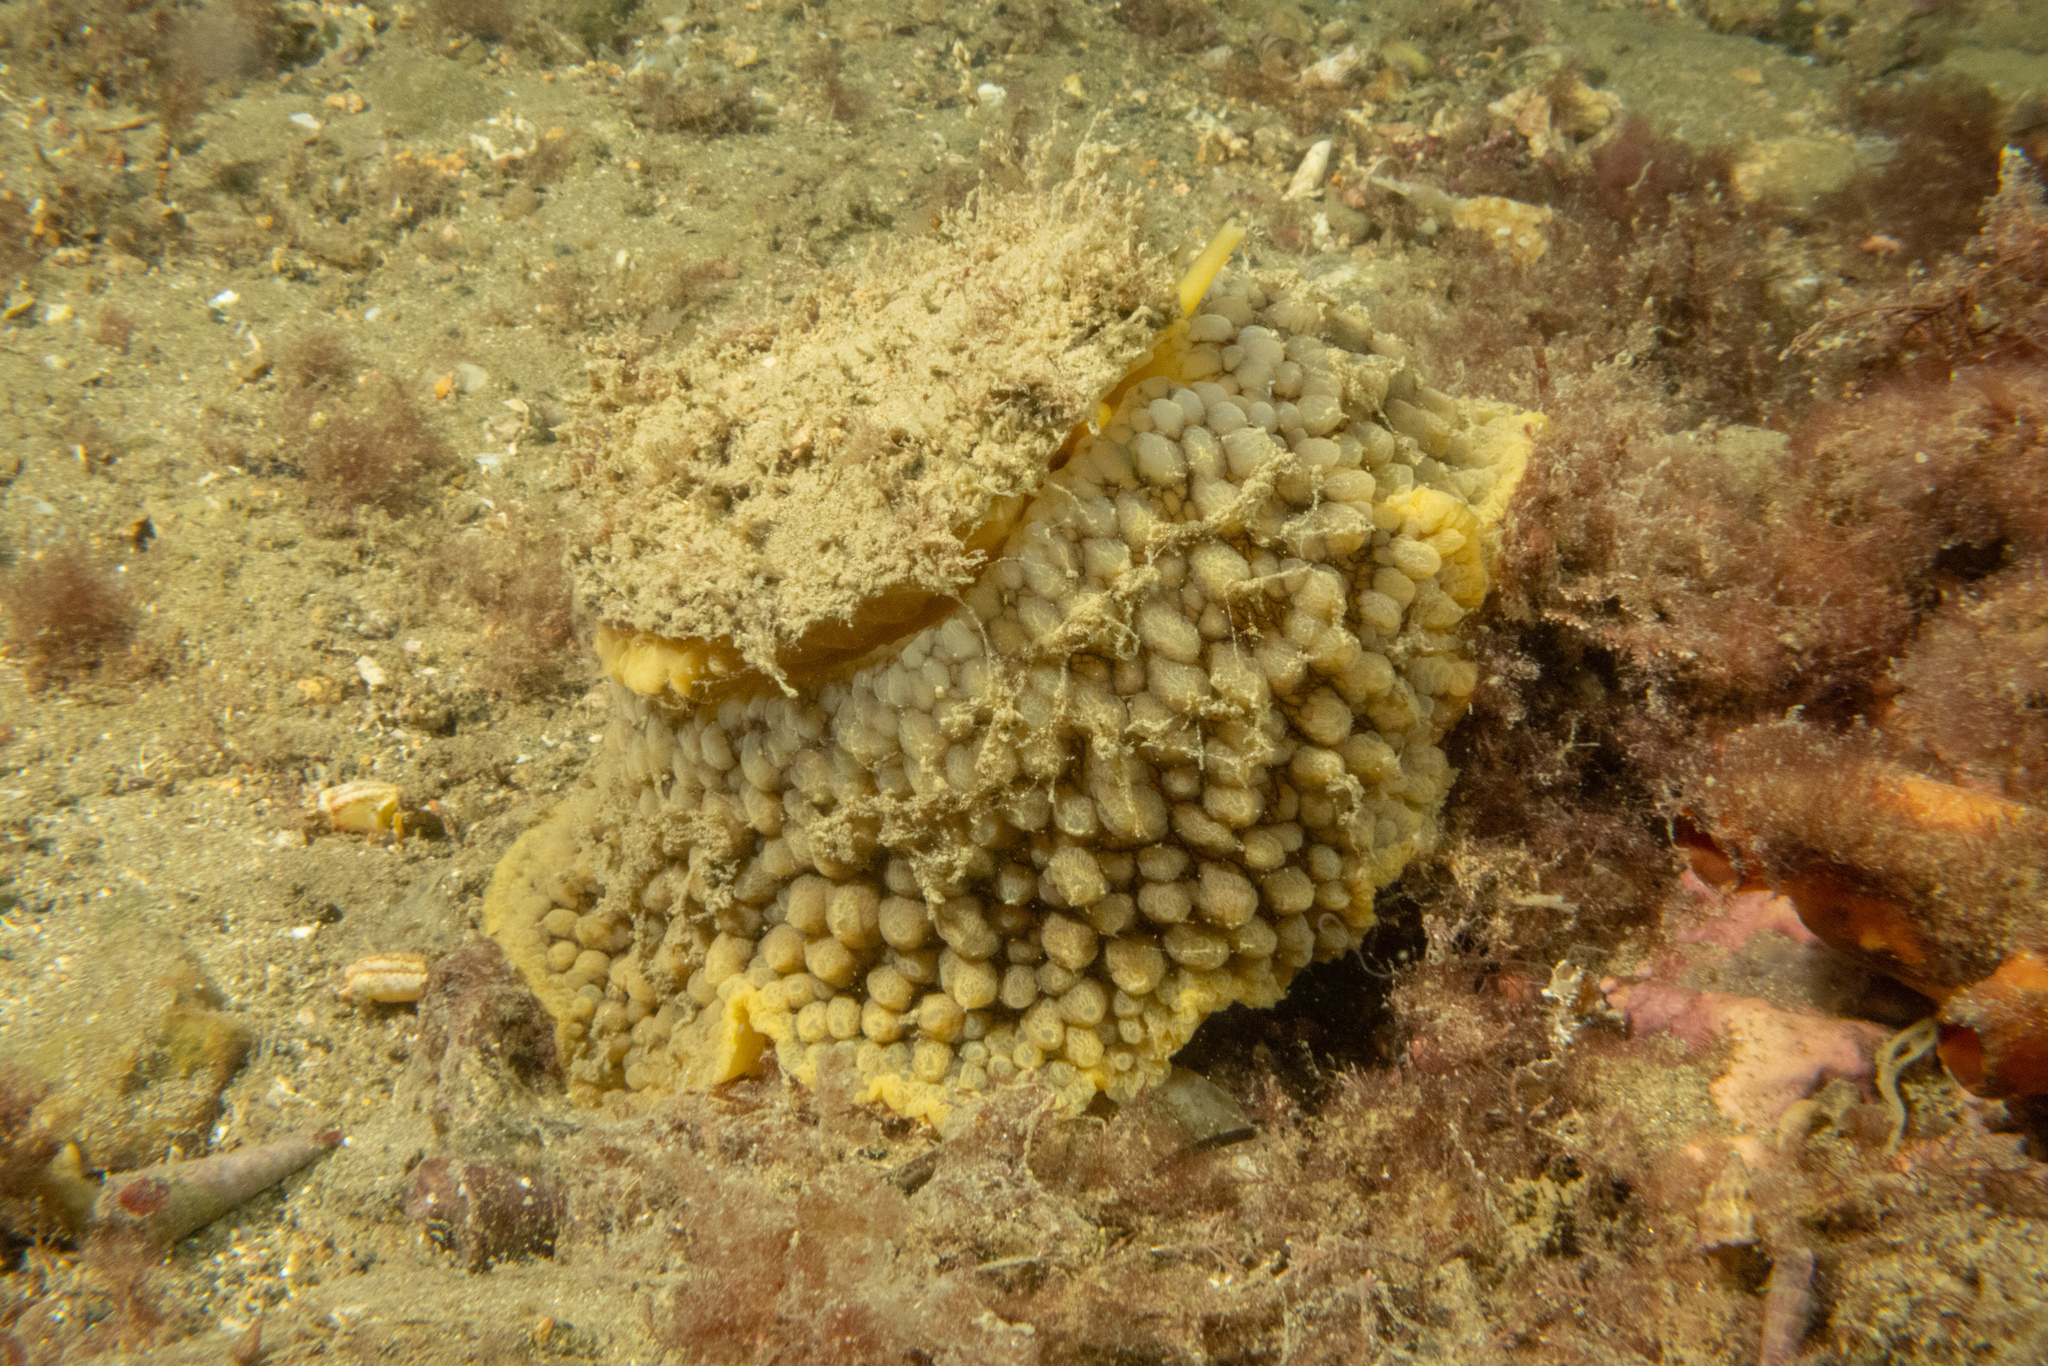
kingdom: Animalia
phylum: Mollusca
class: Gastropoda
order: Umbraculida
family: Umbraculidae
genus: Umbraculum
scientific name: Umbraculum umbraculum
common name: Atlantic umbrella slug
